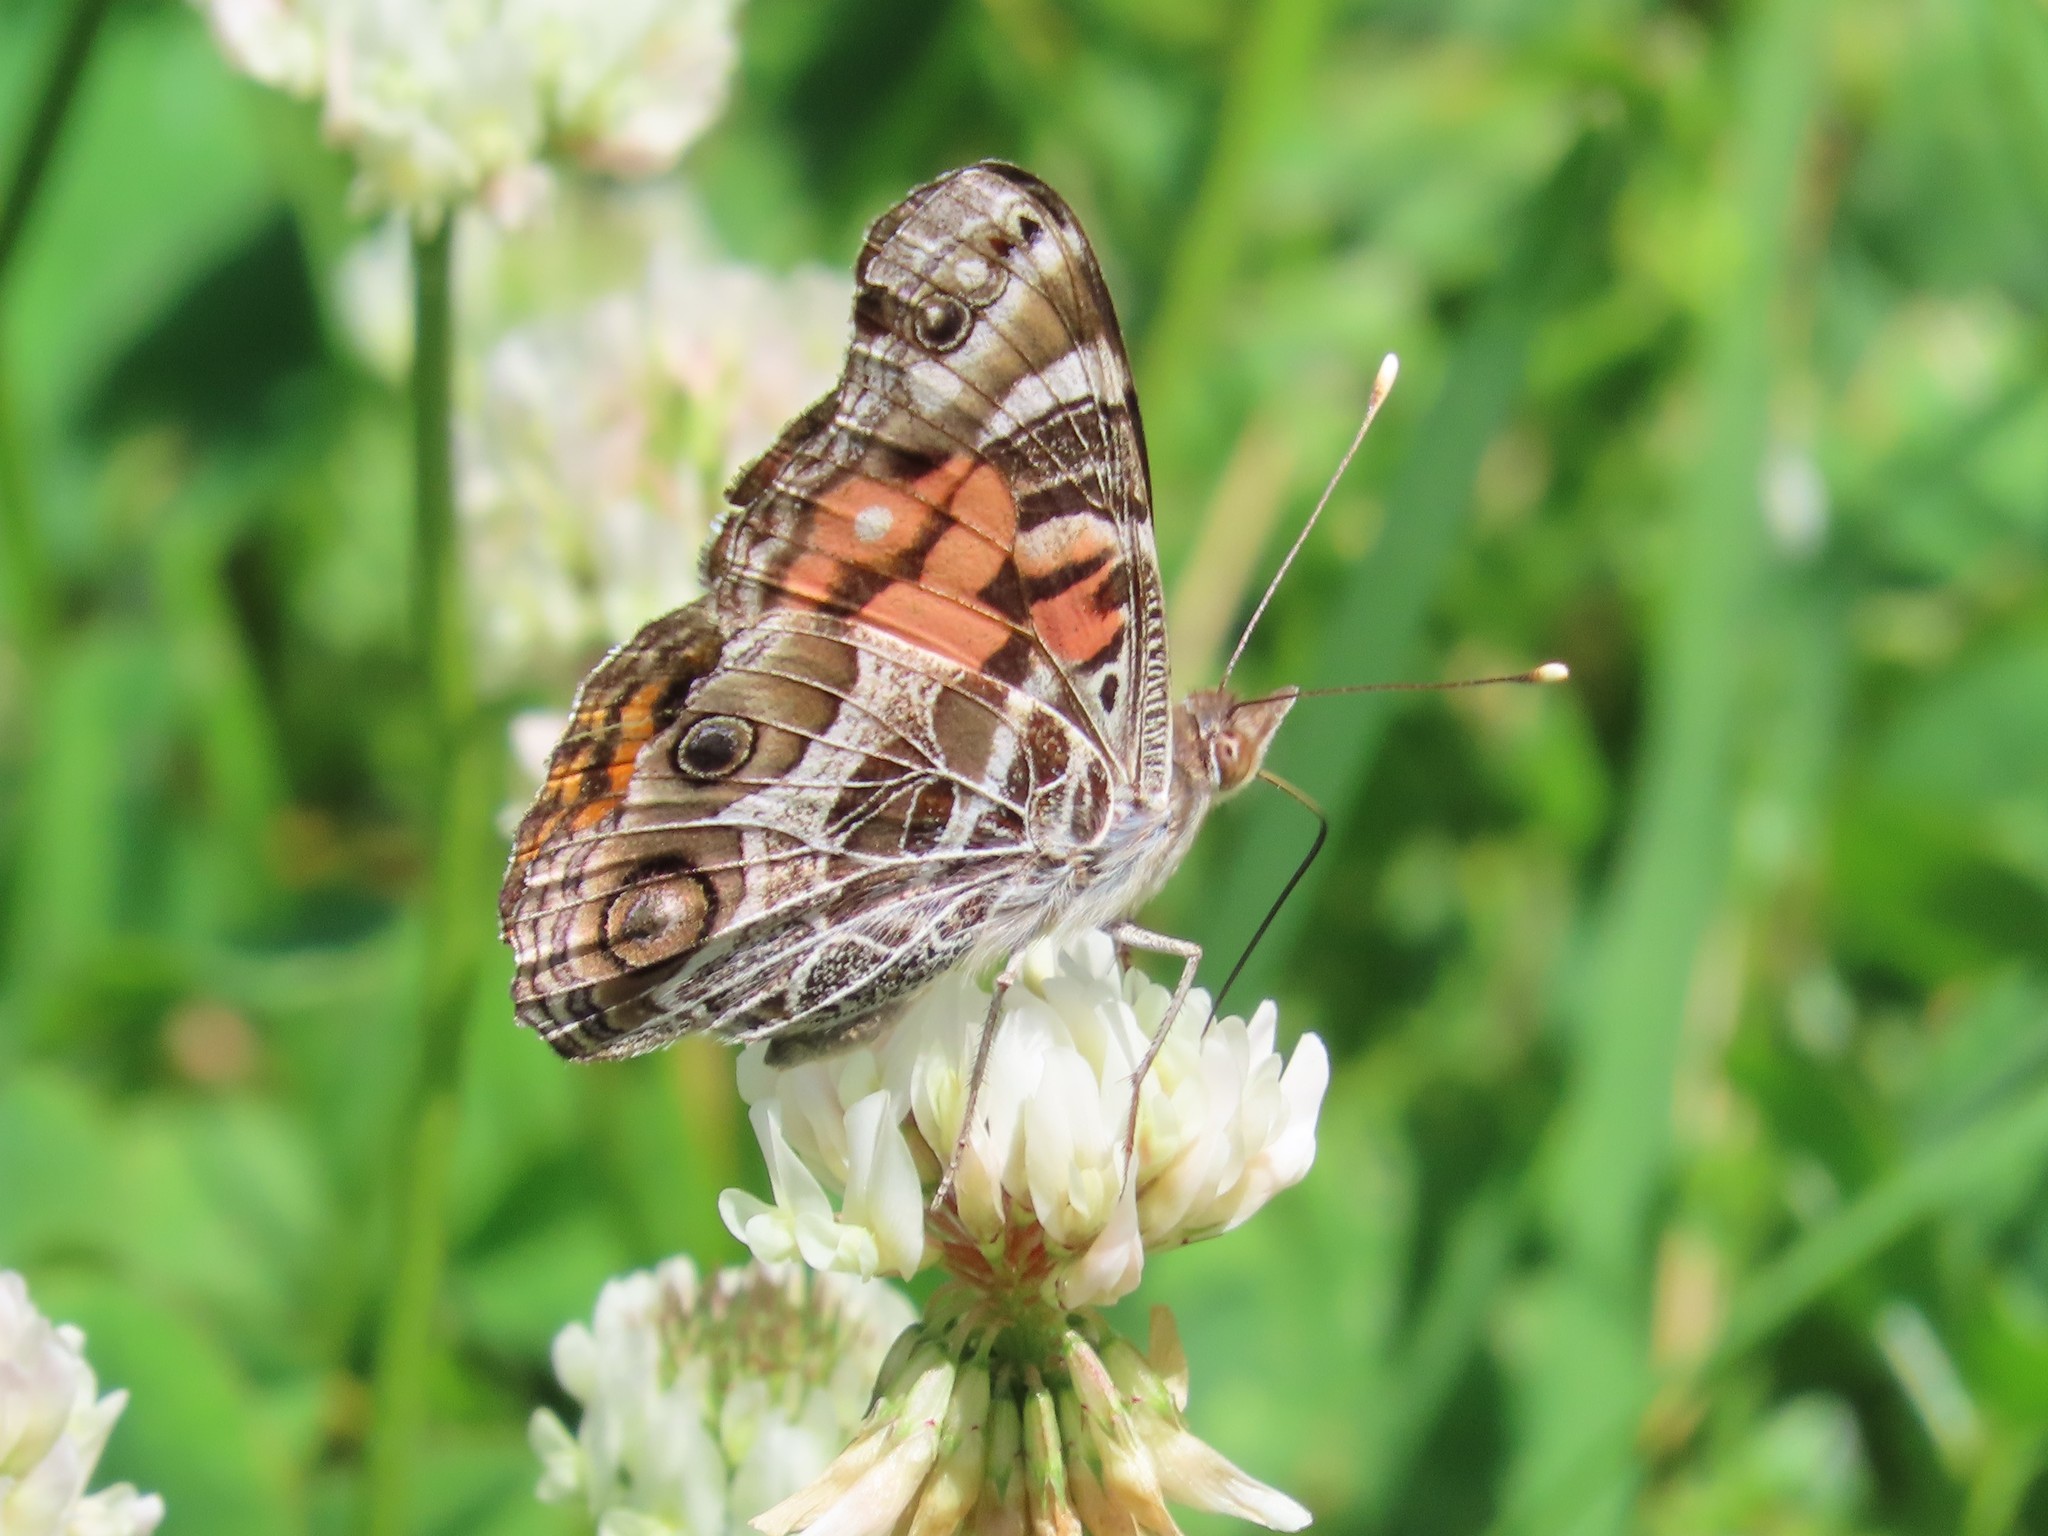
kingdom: Animalia
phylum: Arthropoda
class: Insecta
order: Lepidoptera
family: Nymphalidae
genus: Vanessa
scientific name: Vanessa virginiensis
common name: American lady
